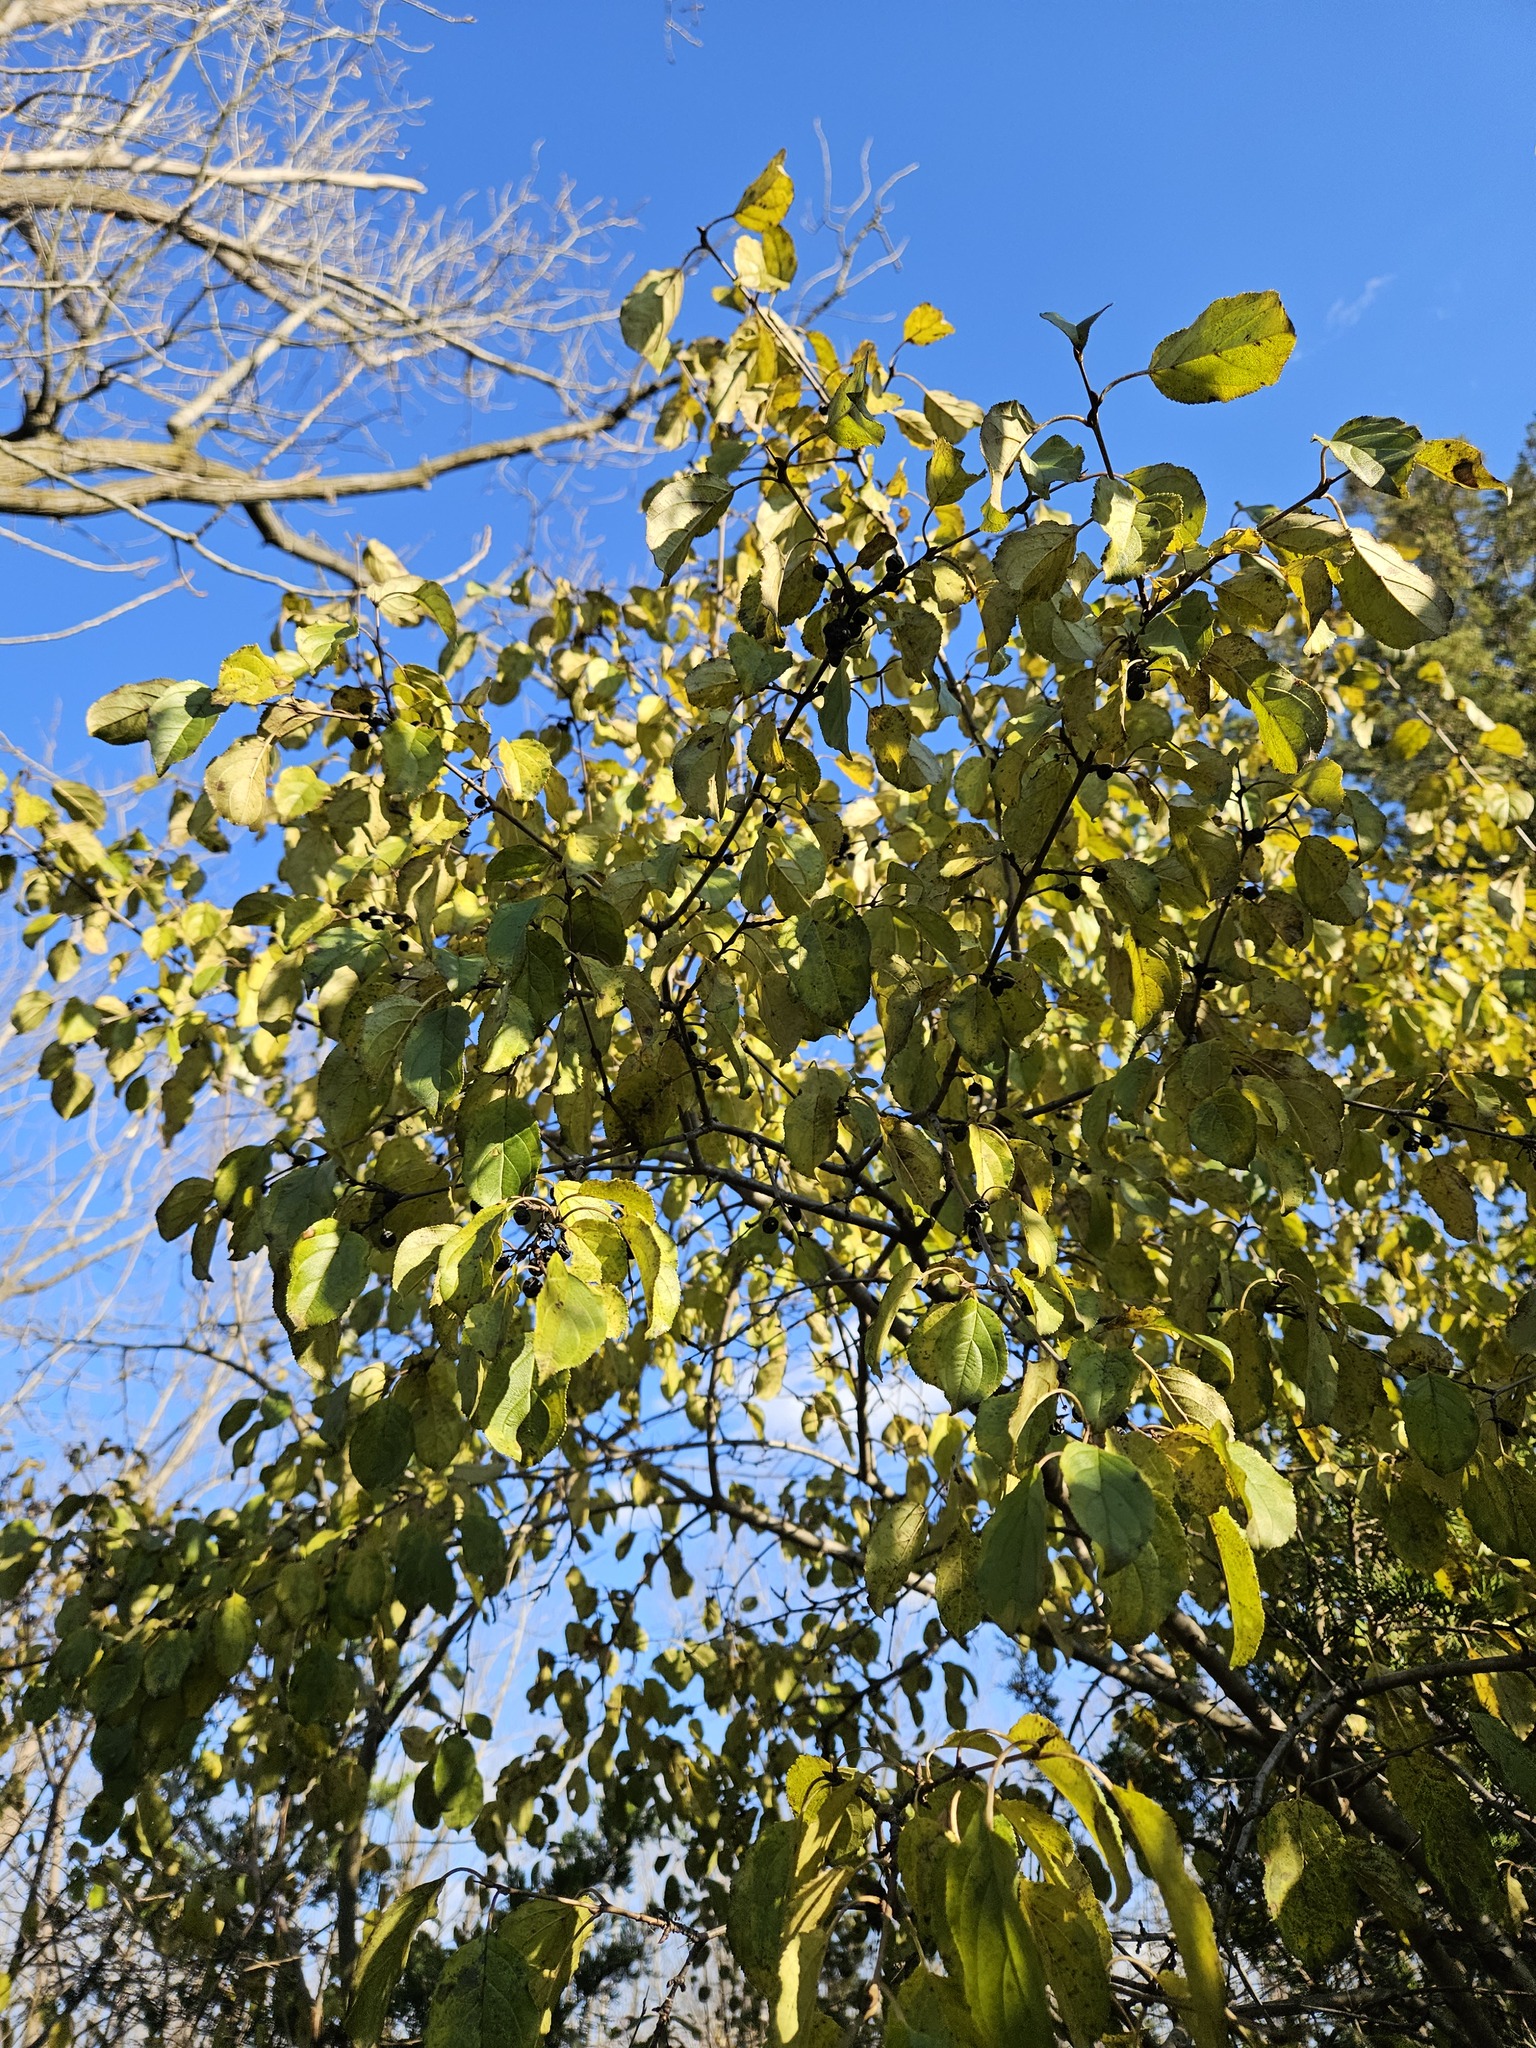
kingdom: Plantae
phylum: Tracheophyta
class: Magnoliopsida
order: Rosales
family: Rhamnaceae
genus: Rhamnus
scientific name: Rhamnus cathartica
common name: Common buckthorn
